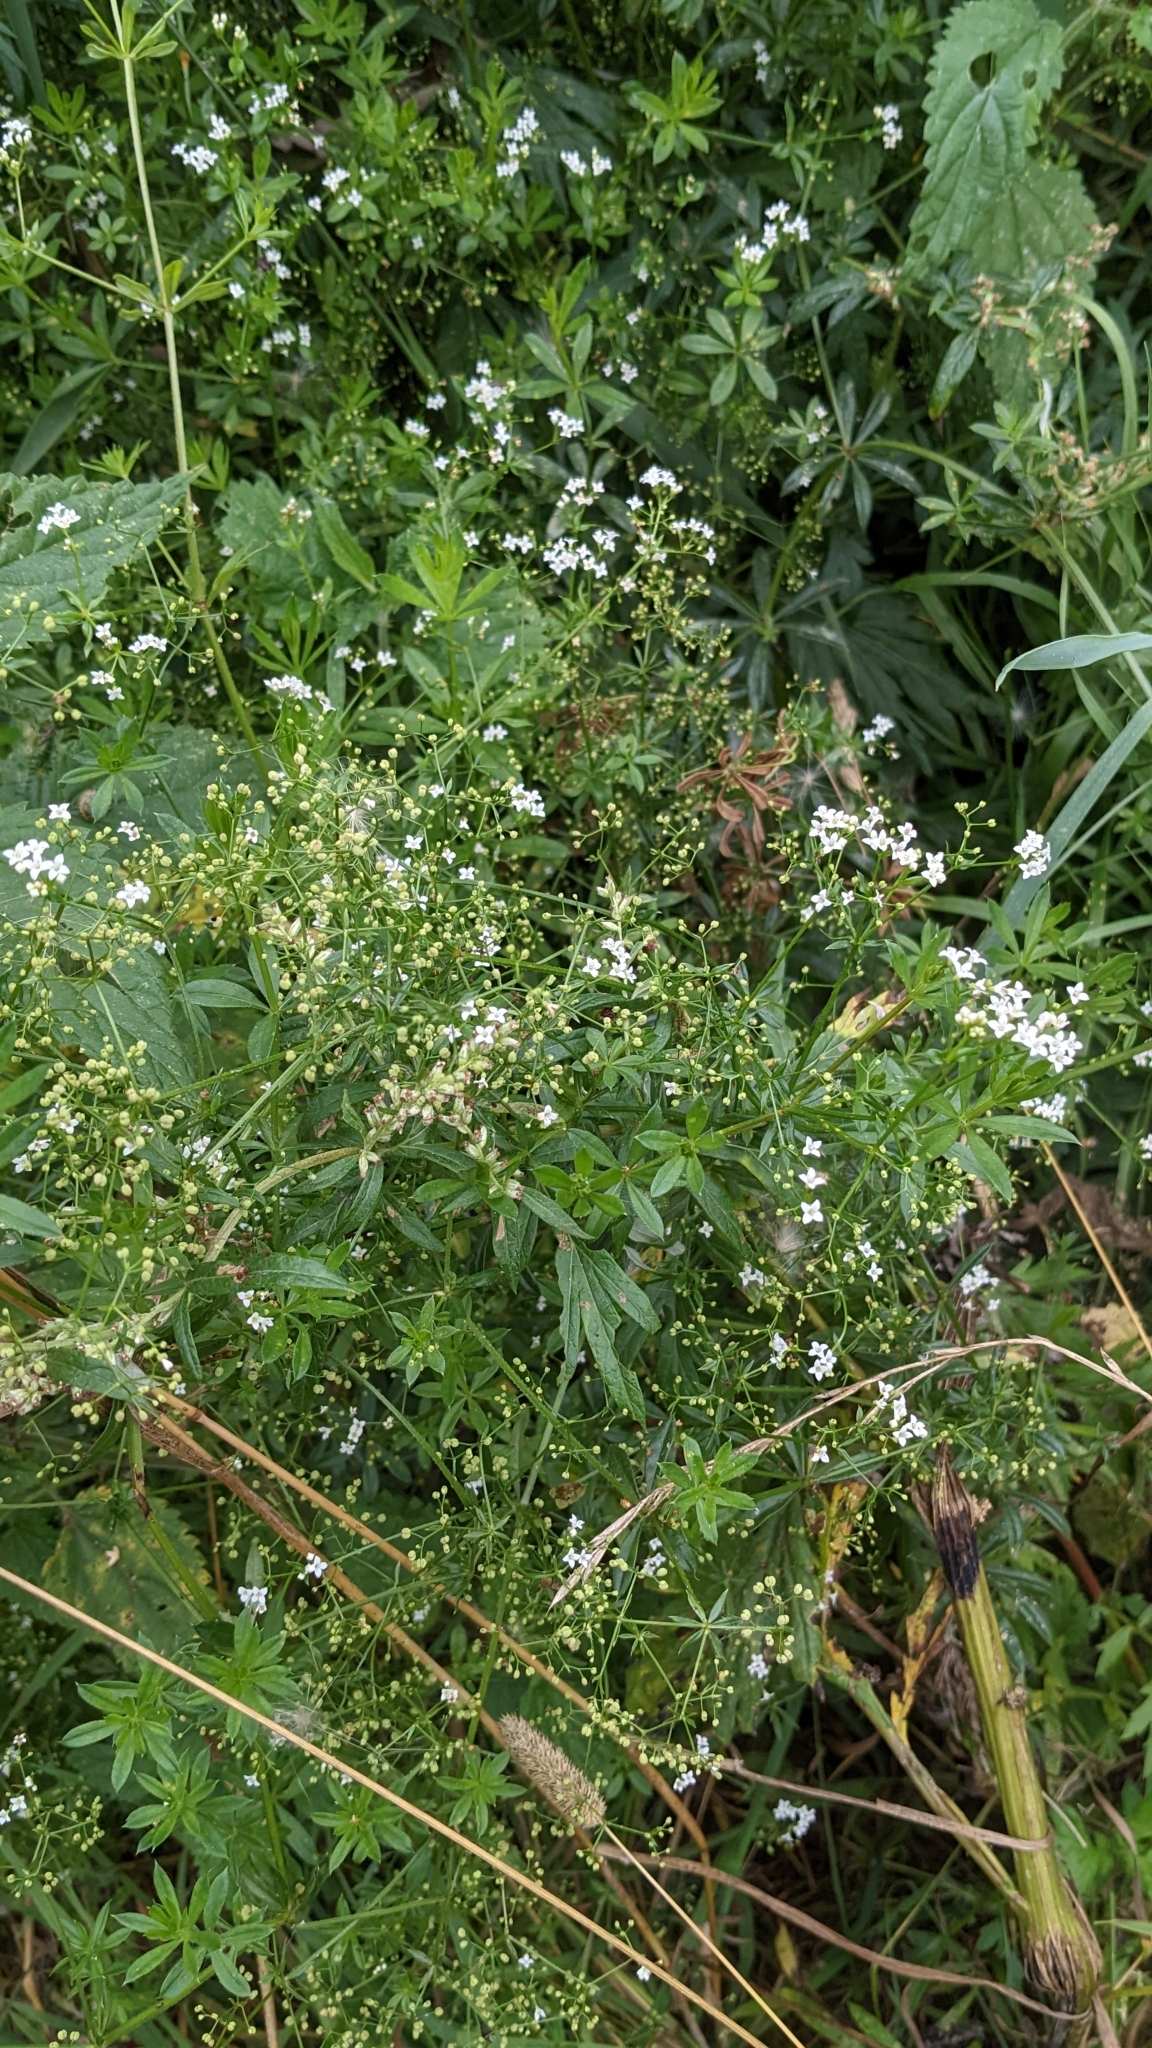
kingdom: Plantae
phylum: Tracheophyta
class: Magnoliopsida
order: Gentianales
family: Rubiaceae
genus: Galium
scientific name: Galium rivale
